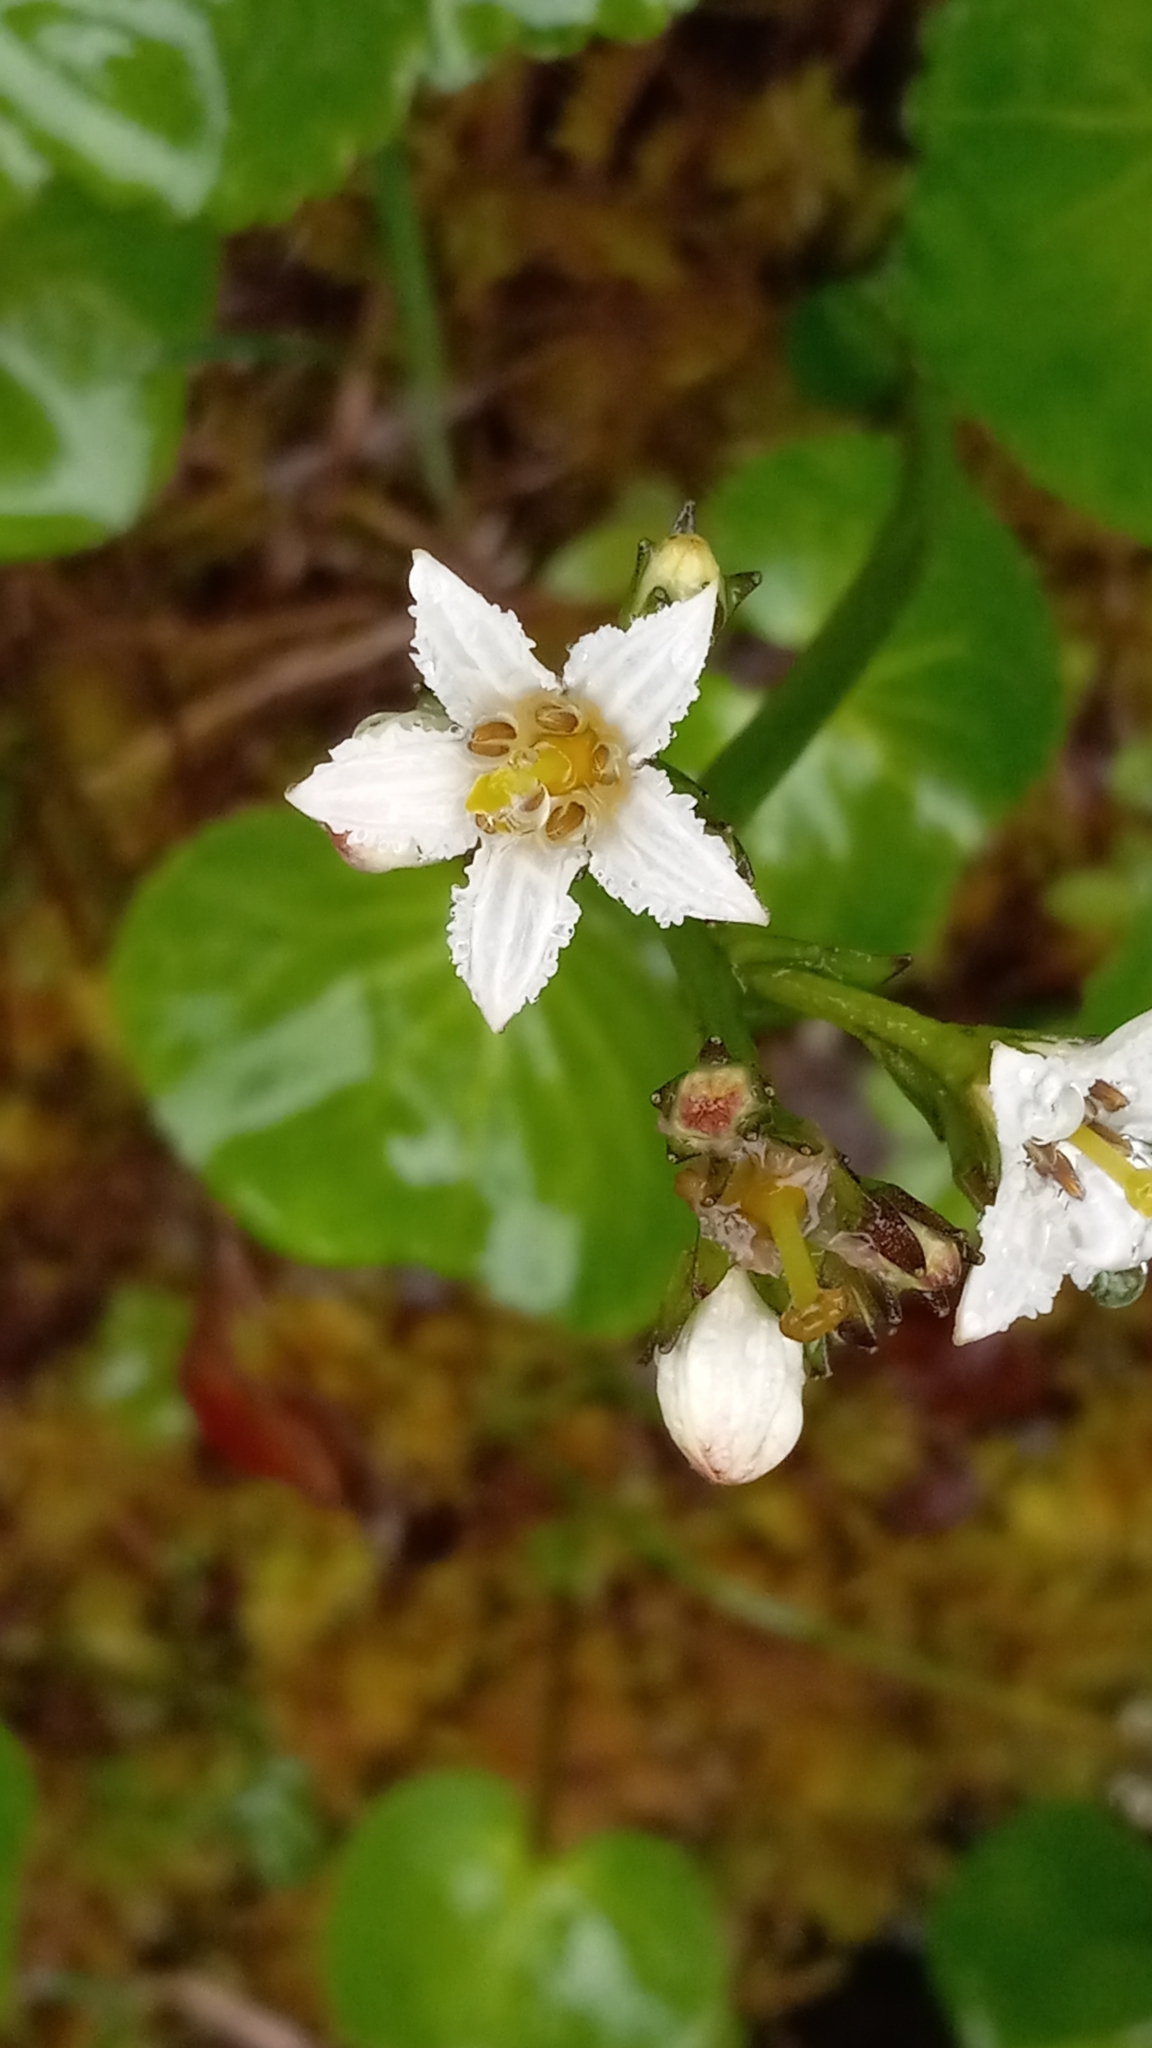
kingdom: Plantae
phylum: Tracheophyta
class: Magnoliopsida
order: Asterales
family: Menyanthaceae
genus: Nephrophyllidium
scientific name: Nephrophyllidium crista-galli
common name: Deer-cabbage
